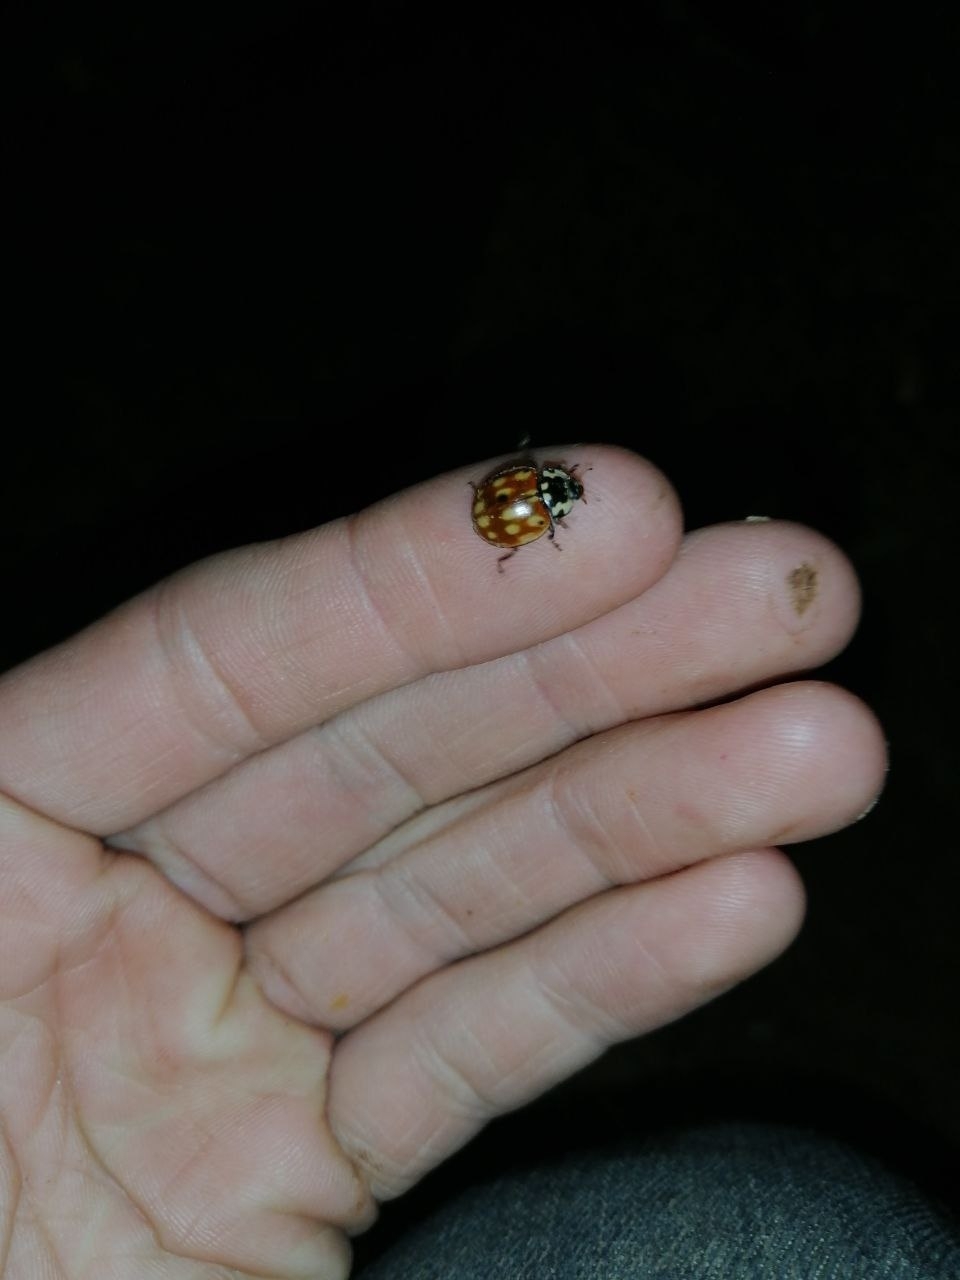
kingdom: Animalia
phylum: Arthropoda
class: Insecta
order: Coleoptera
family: Coccinellidae
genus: Anatis
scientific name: Anatis ocellata
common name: Eyed ladybird
